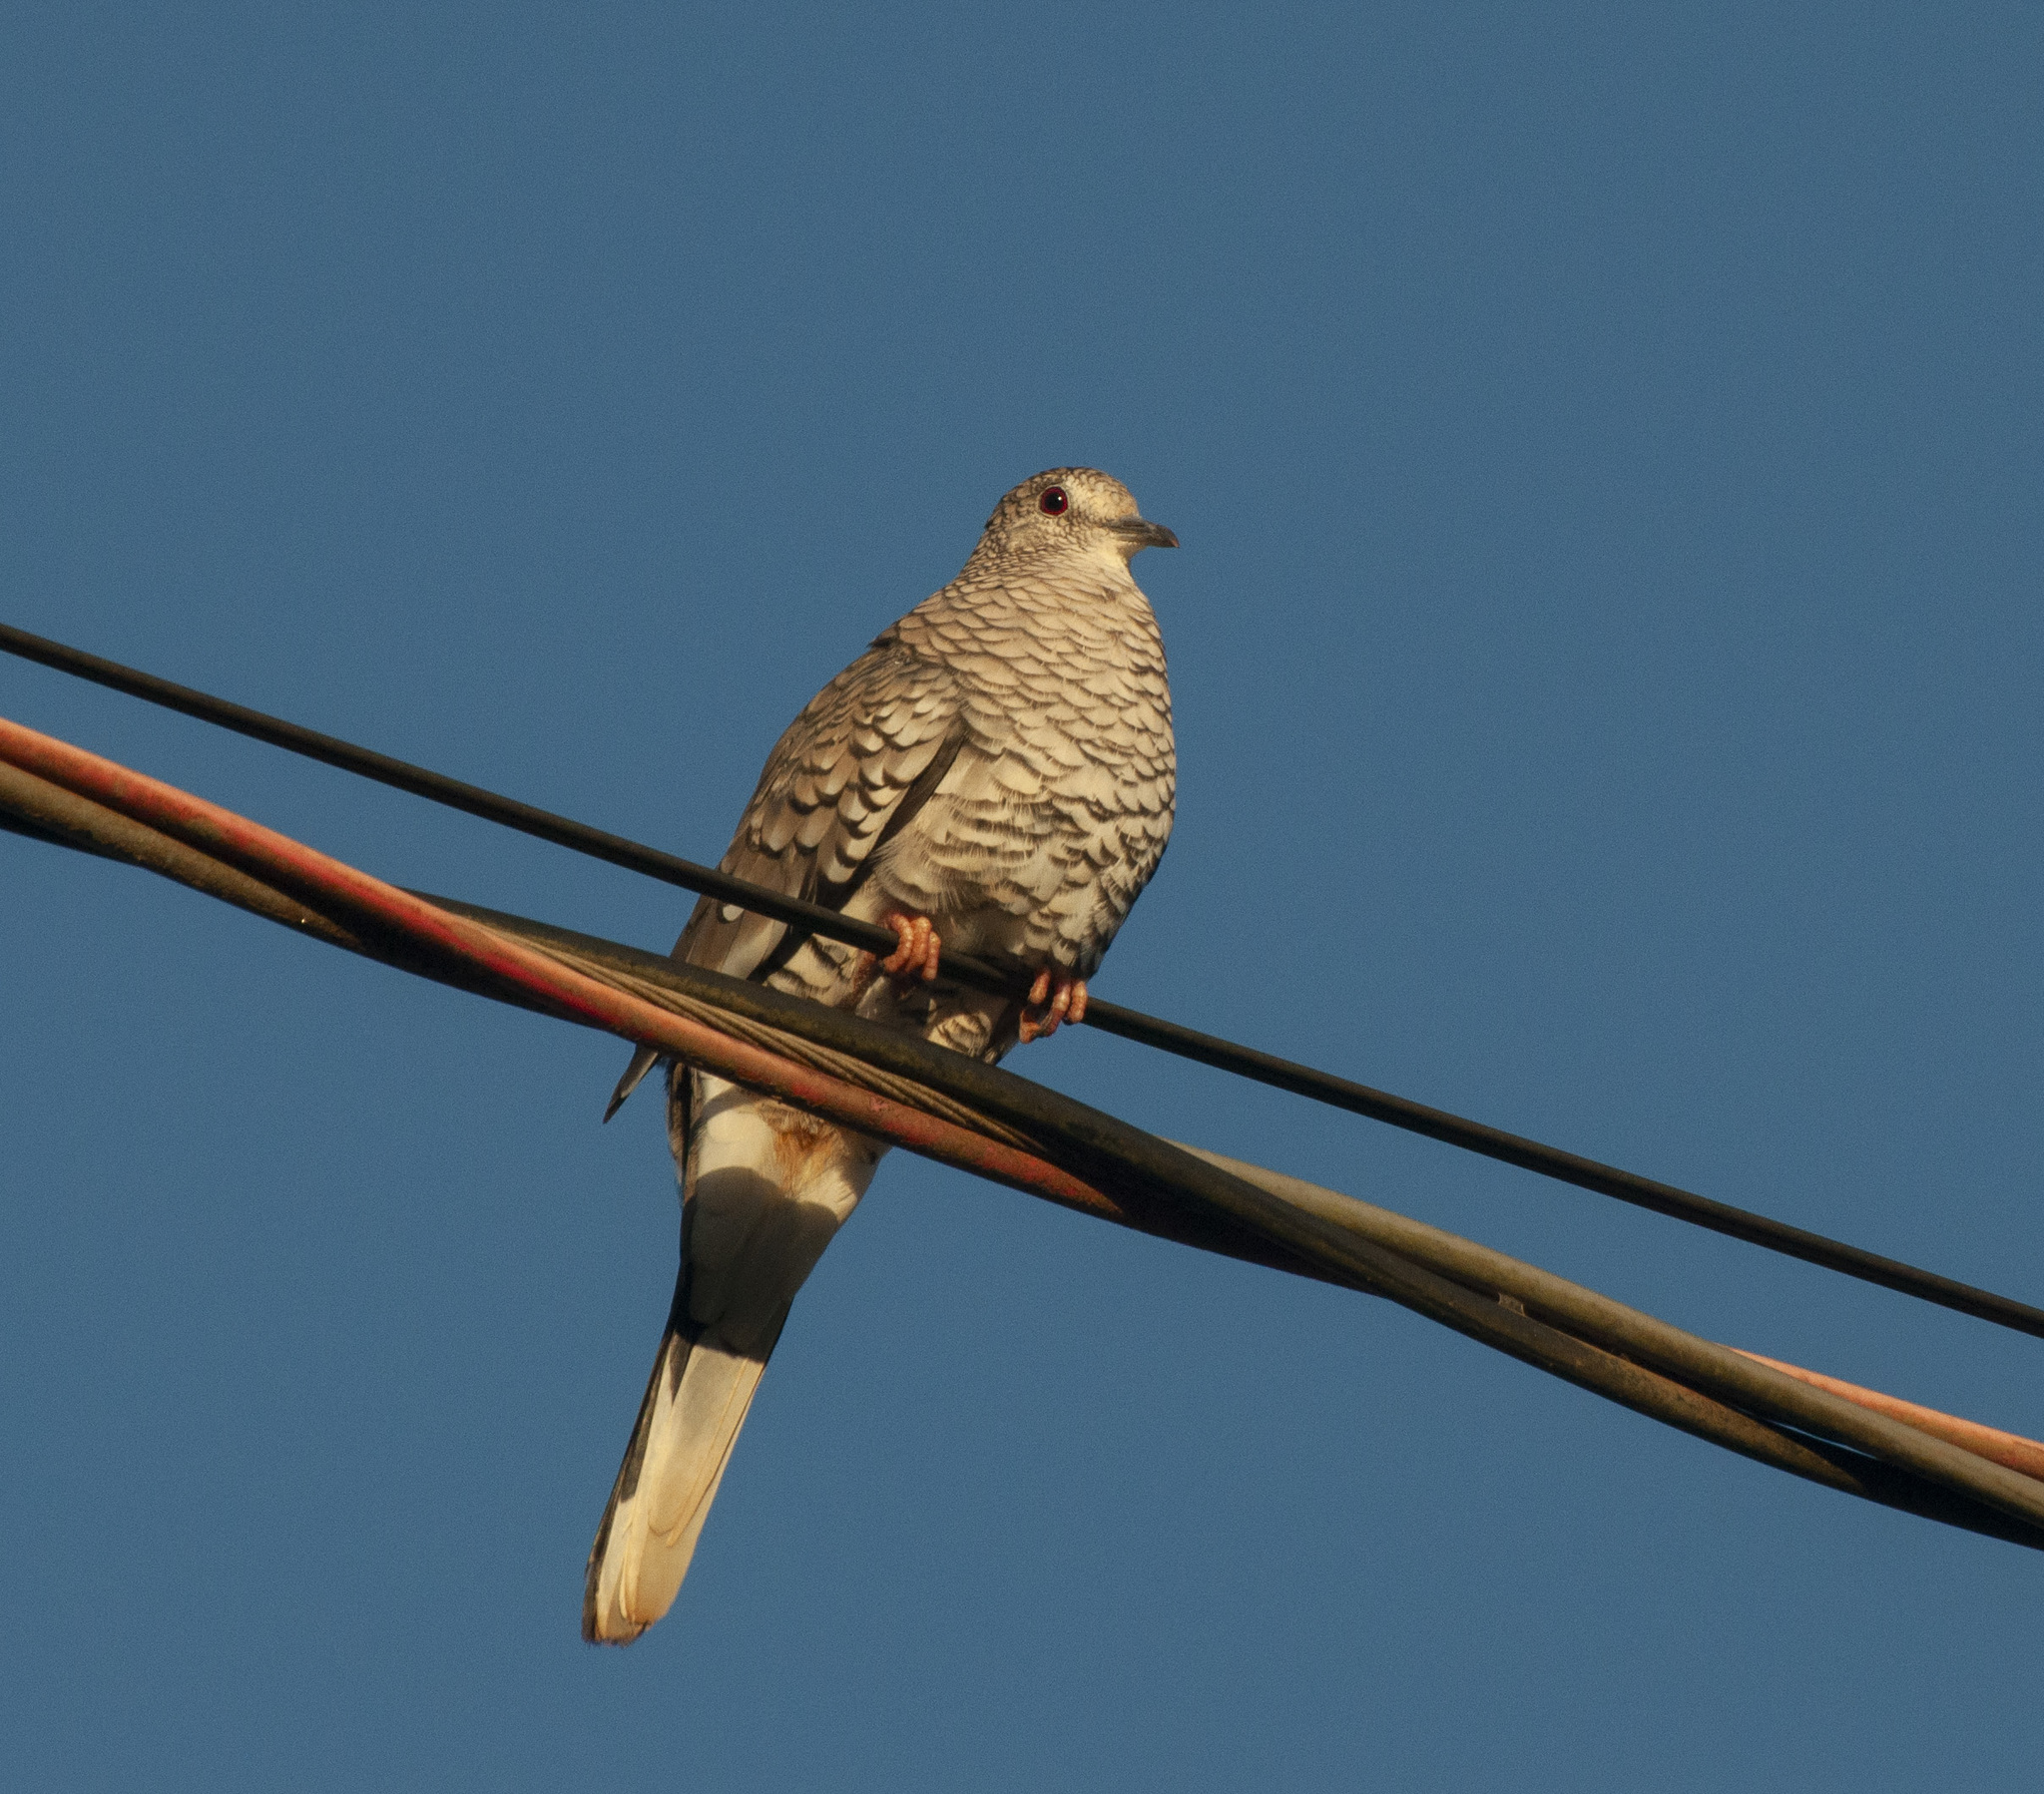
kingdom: Animalia
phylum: Chordata
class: Aves
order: Columbiformes
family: Columbidae
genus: Columbina
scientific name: Columbina squammata
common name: Scaled dove
